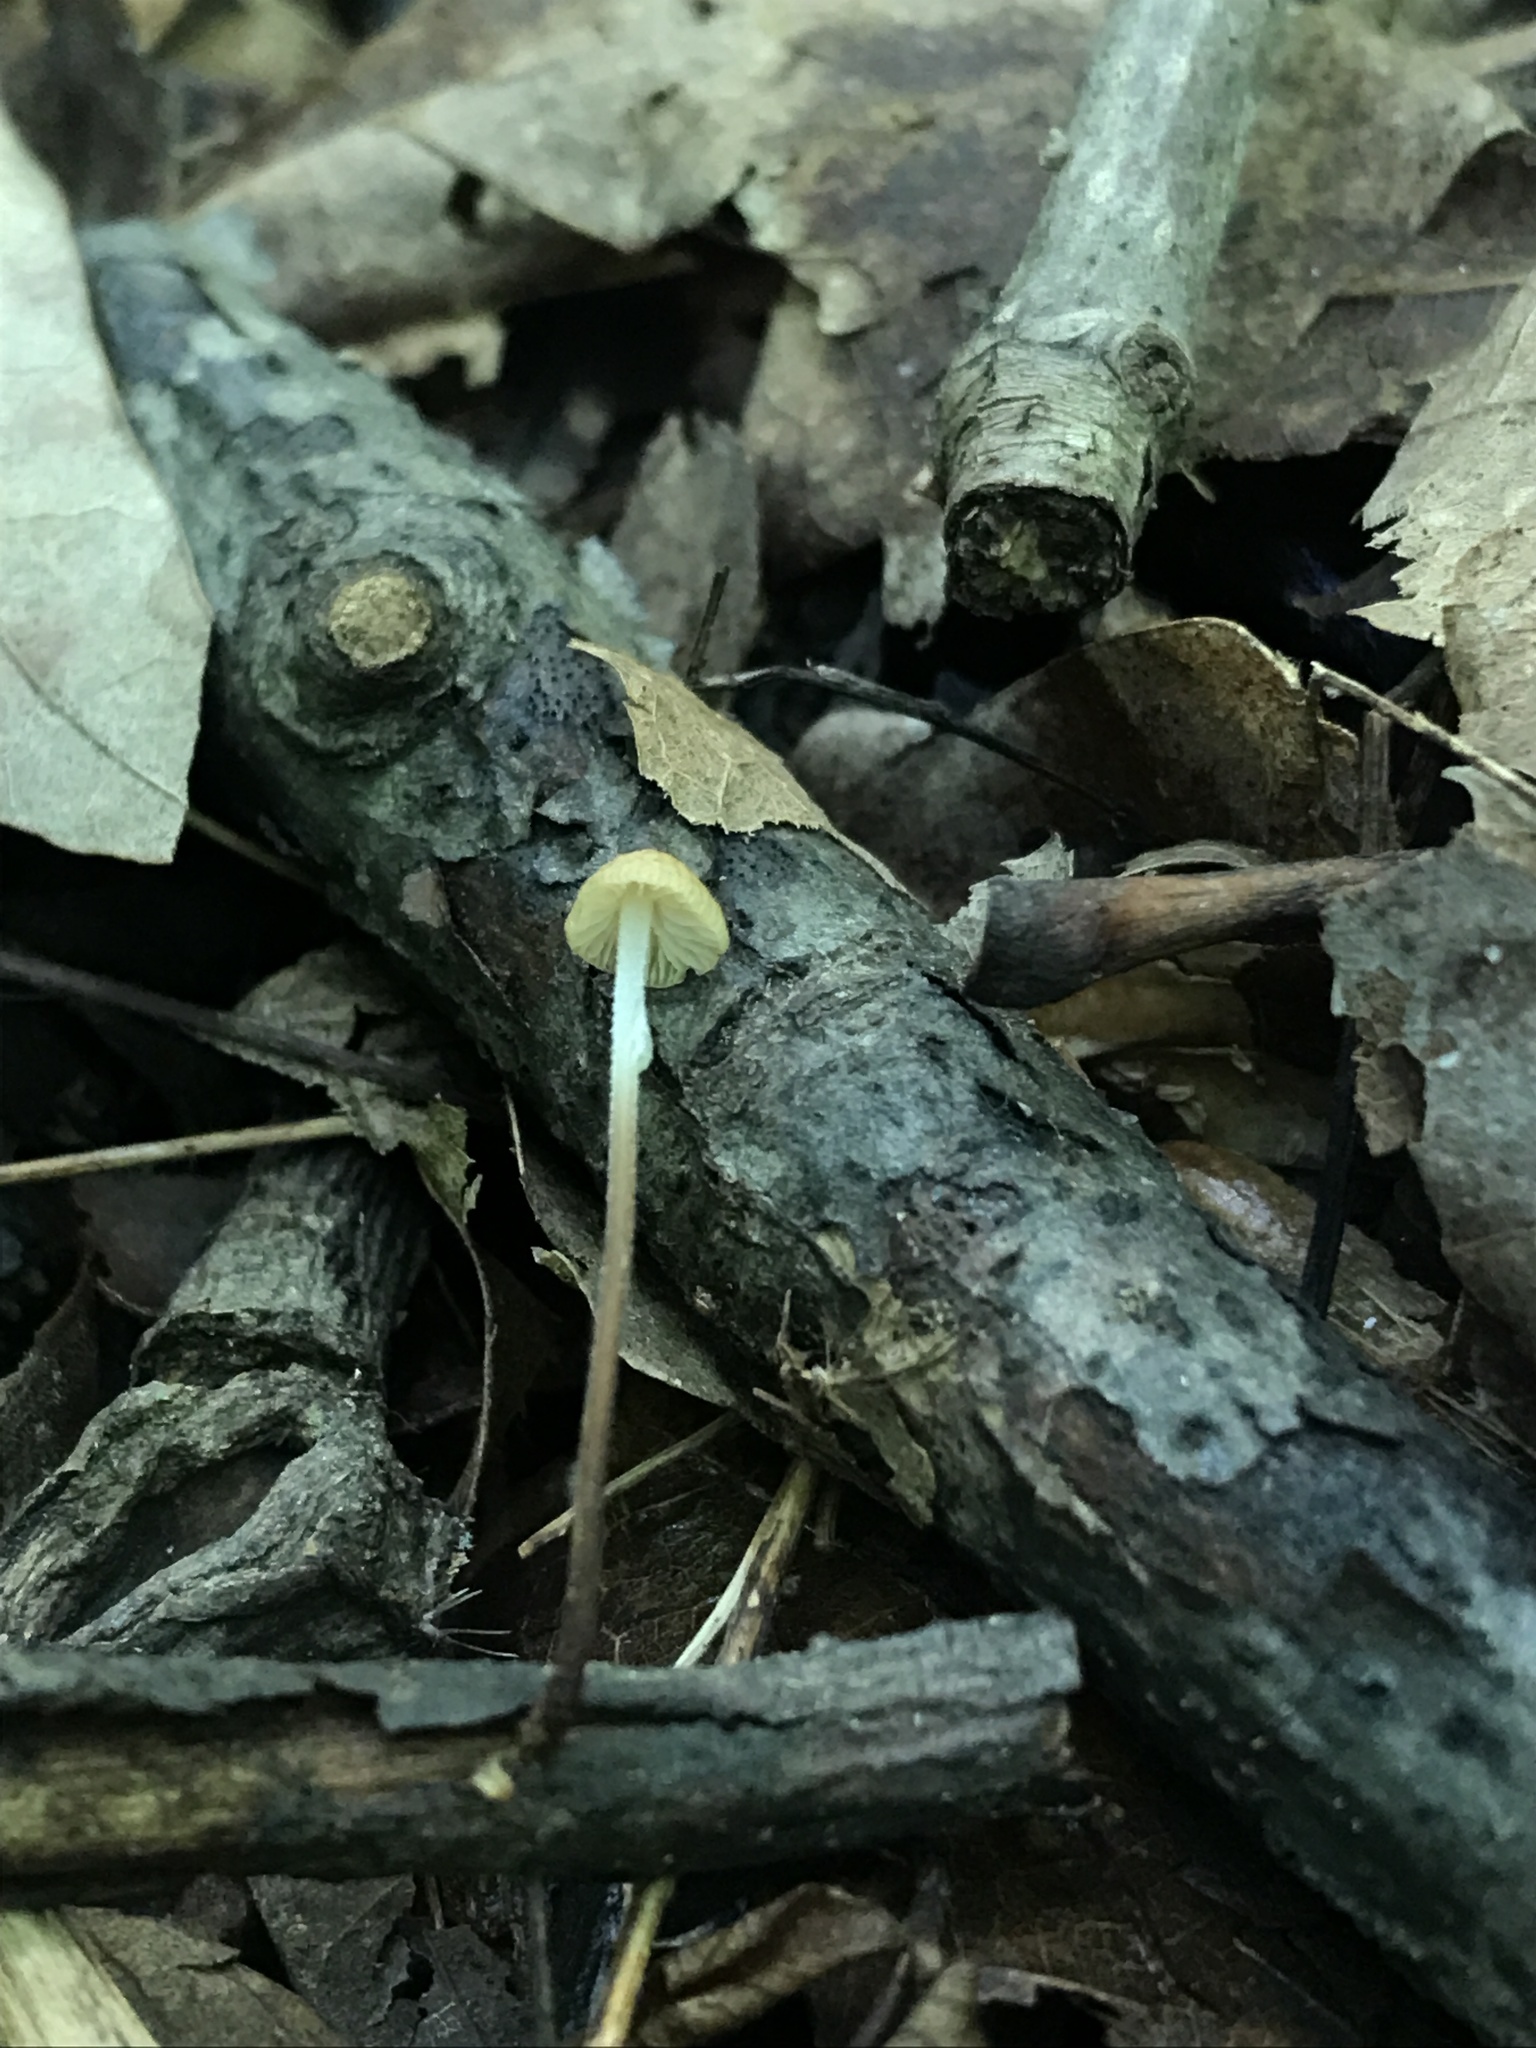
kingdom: Fungi
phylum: Basidiomycota
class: Agaricomycetes
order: Agaricales
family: Physalacriaceae
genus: Rhizomarasmius
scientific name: Rhizomarasmius pyrrhocephalus
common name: Hairy long stem marasmius
